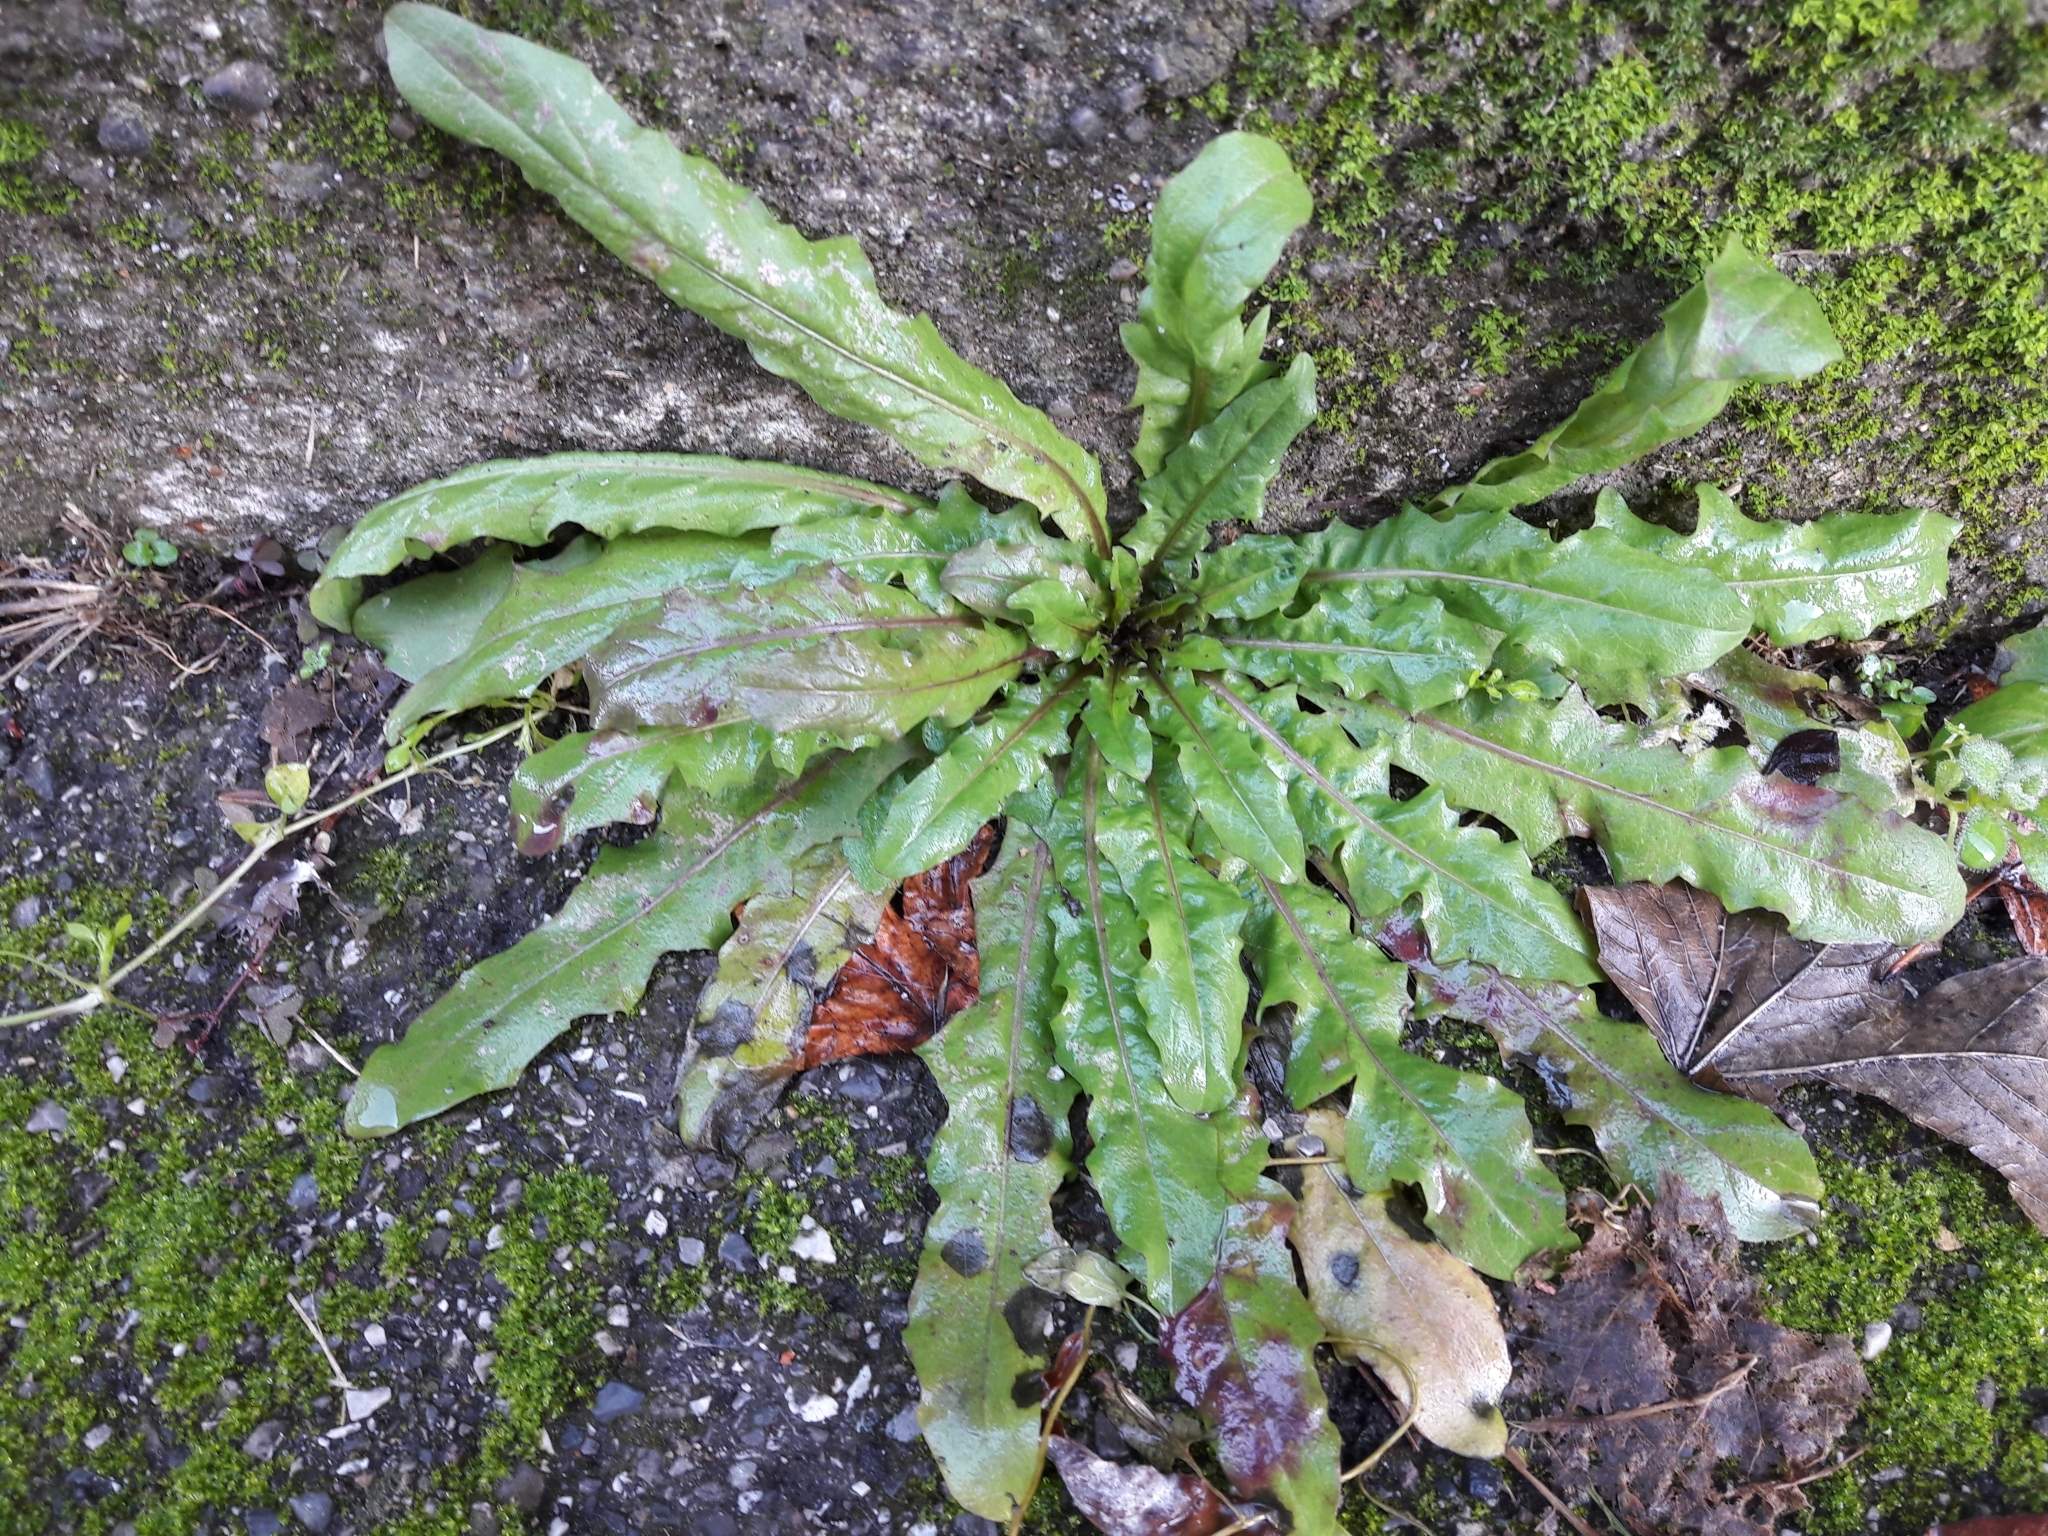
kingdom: Plantae
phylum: Tracheophyta
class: Magnoliopsida
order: Asterales
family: Asteraceae
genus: Taraxacum
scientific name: Taraxacum officinale
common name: Common dandelion
